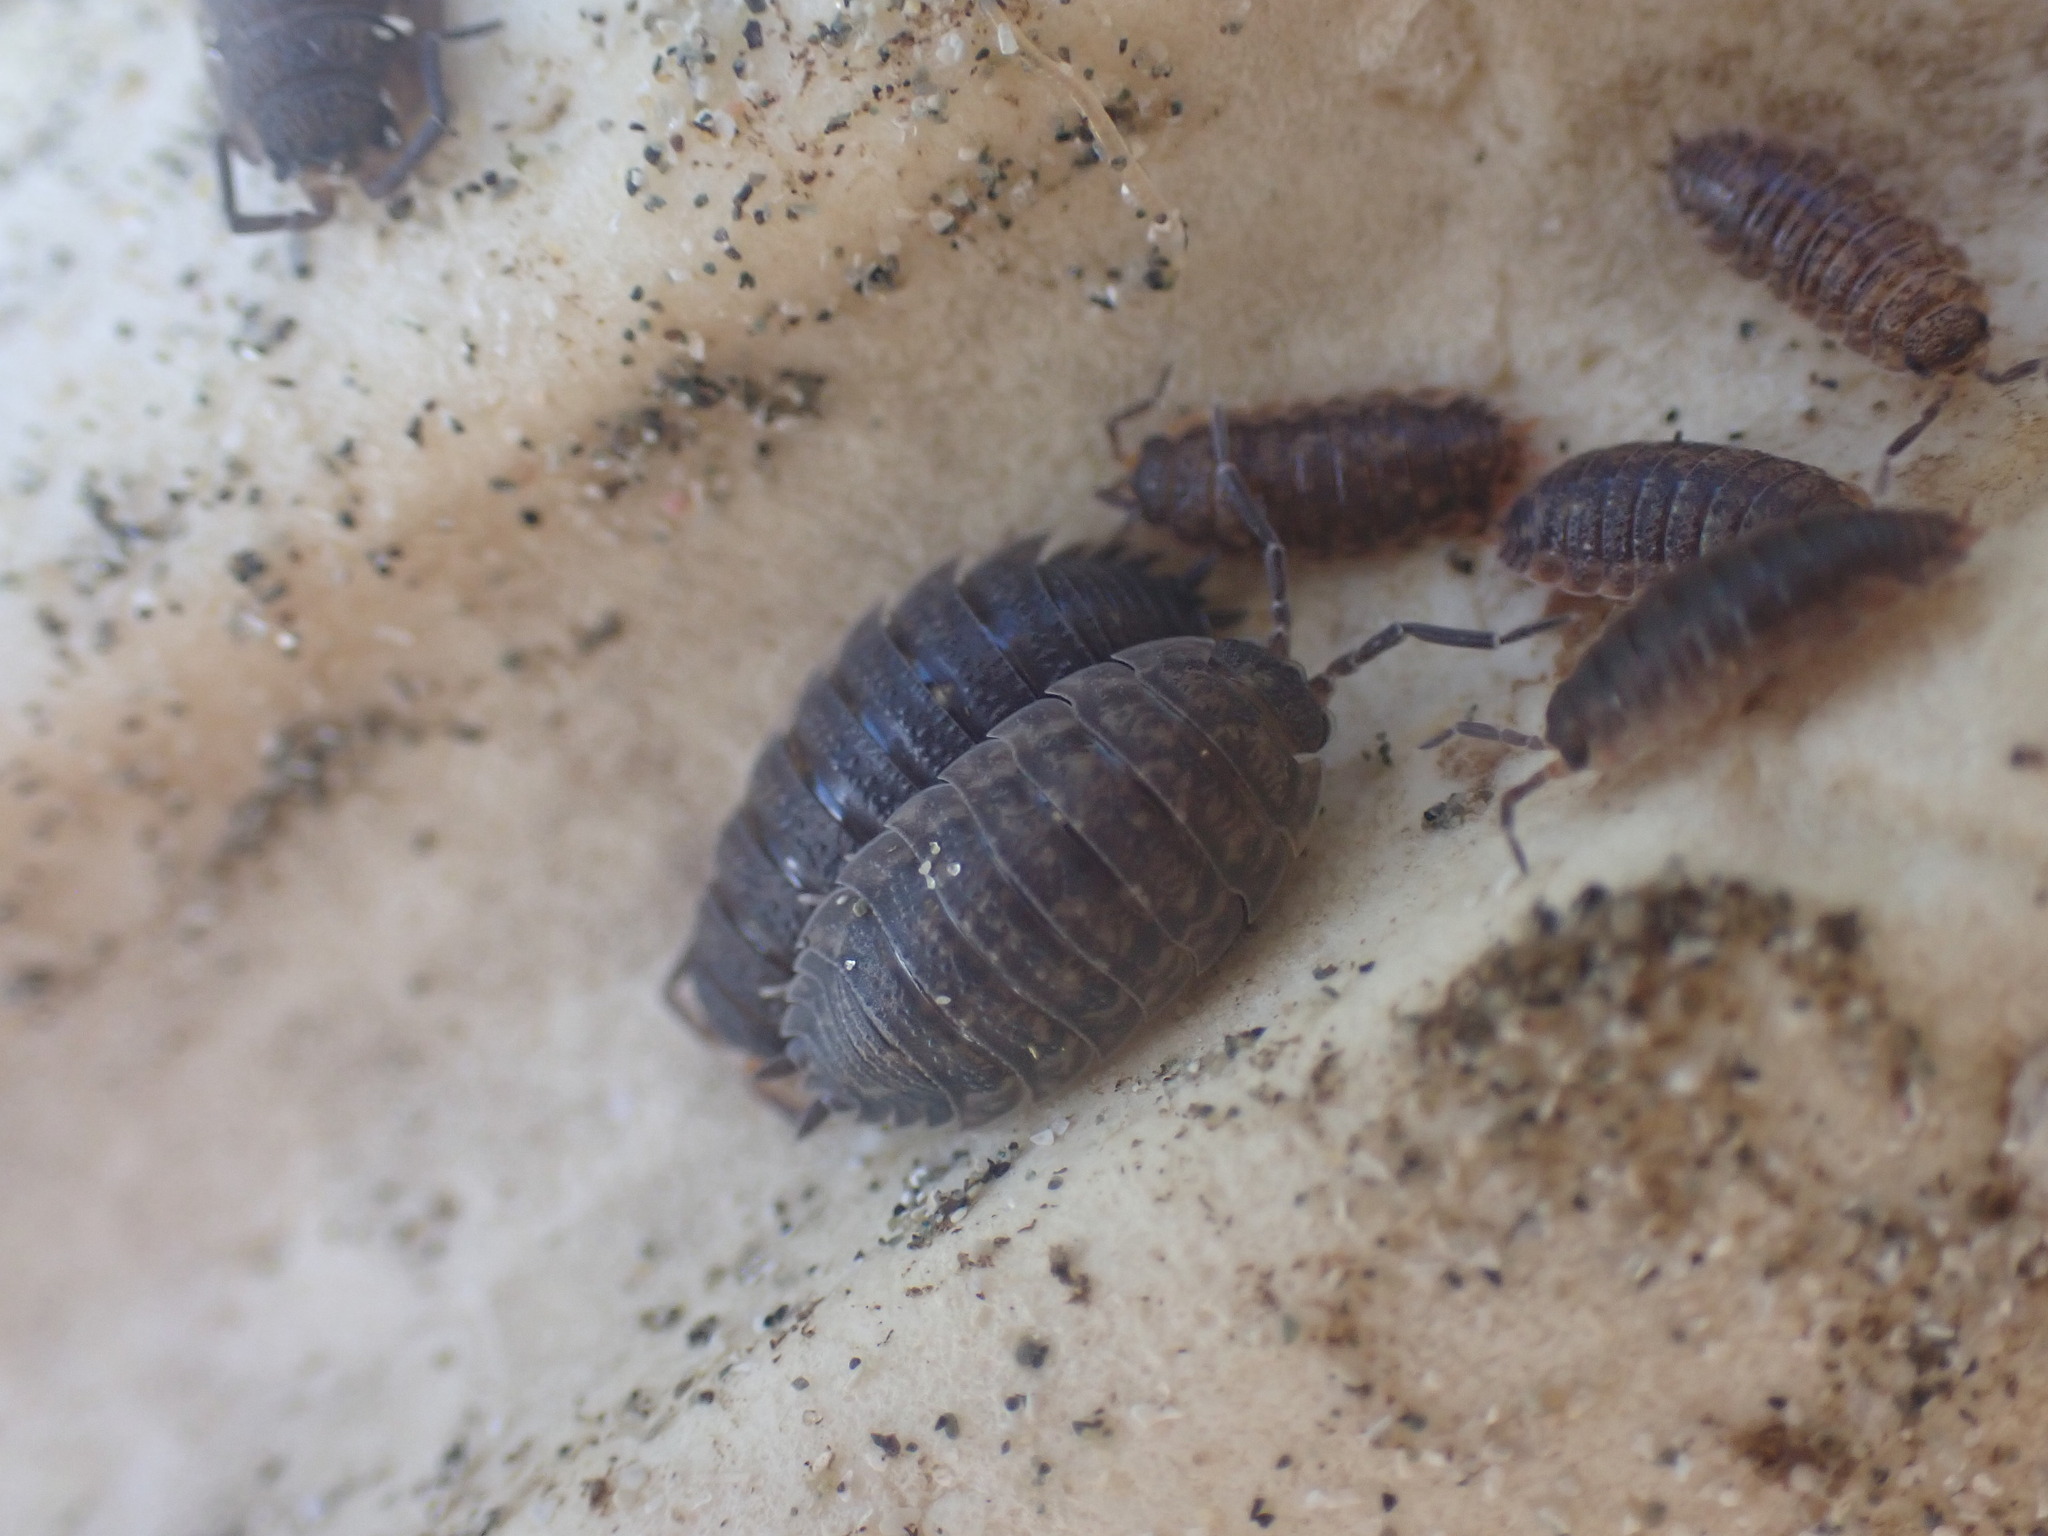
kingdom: Animalia
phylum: Arthropoda
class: Malacostraca
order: Isopoda
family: Porcellionidae
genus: Porcellio
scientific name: Porcellio scaber
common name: Common rough woodlouse
